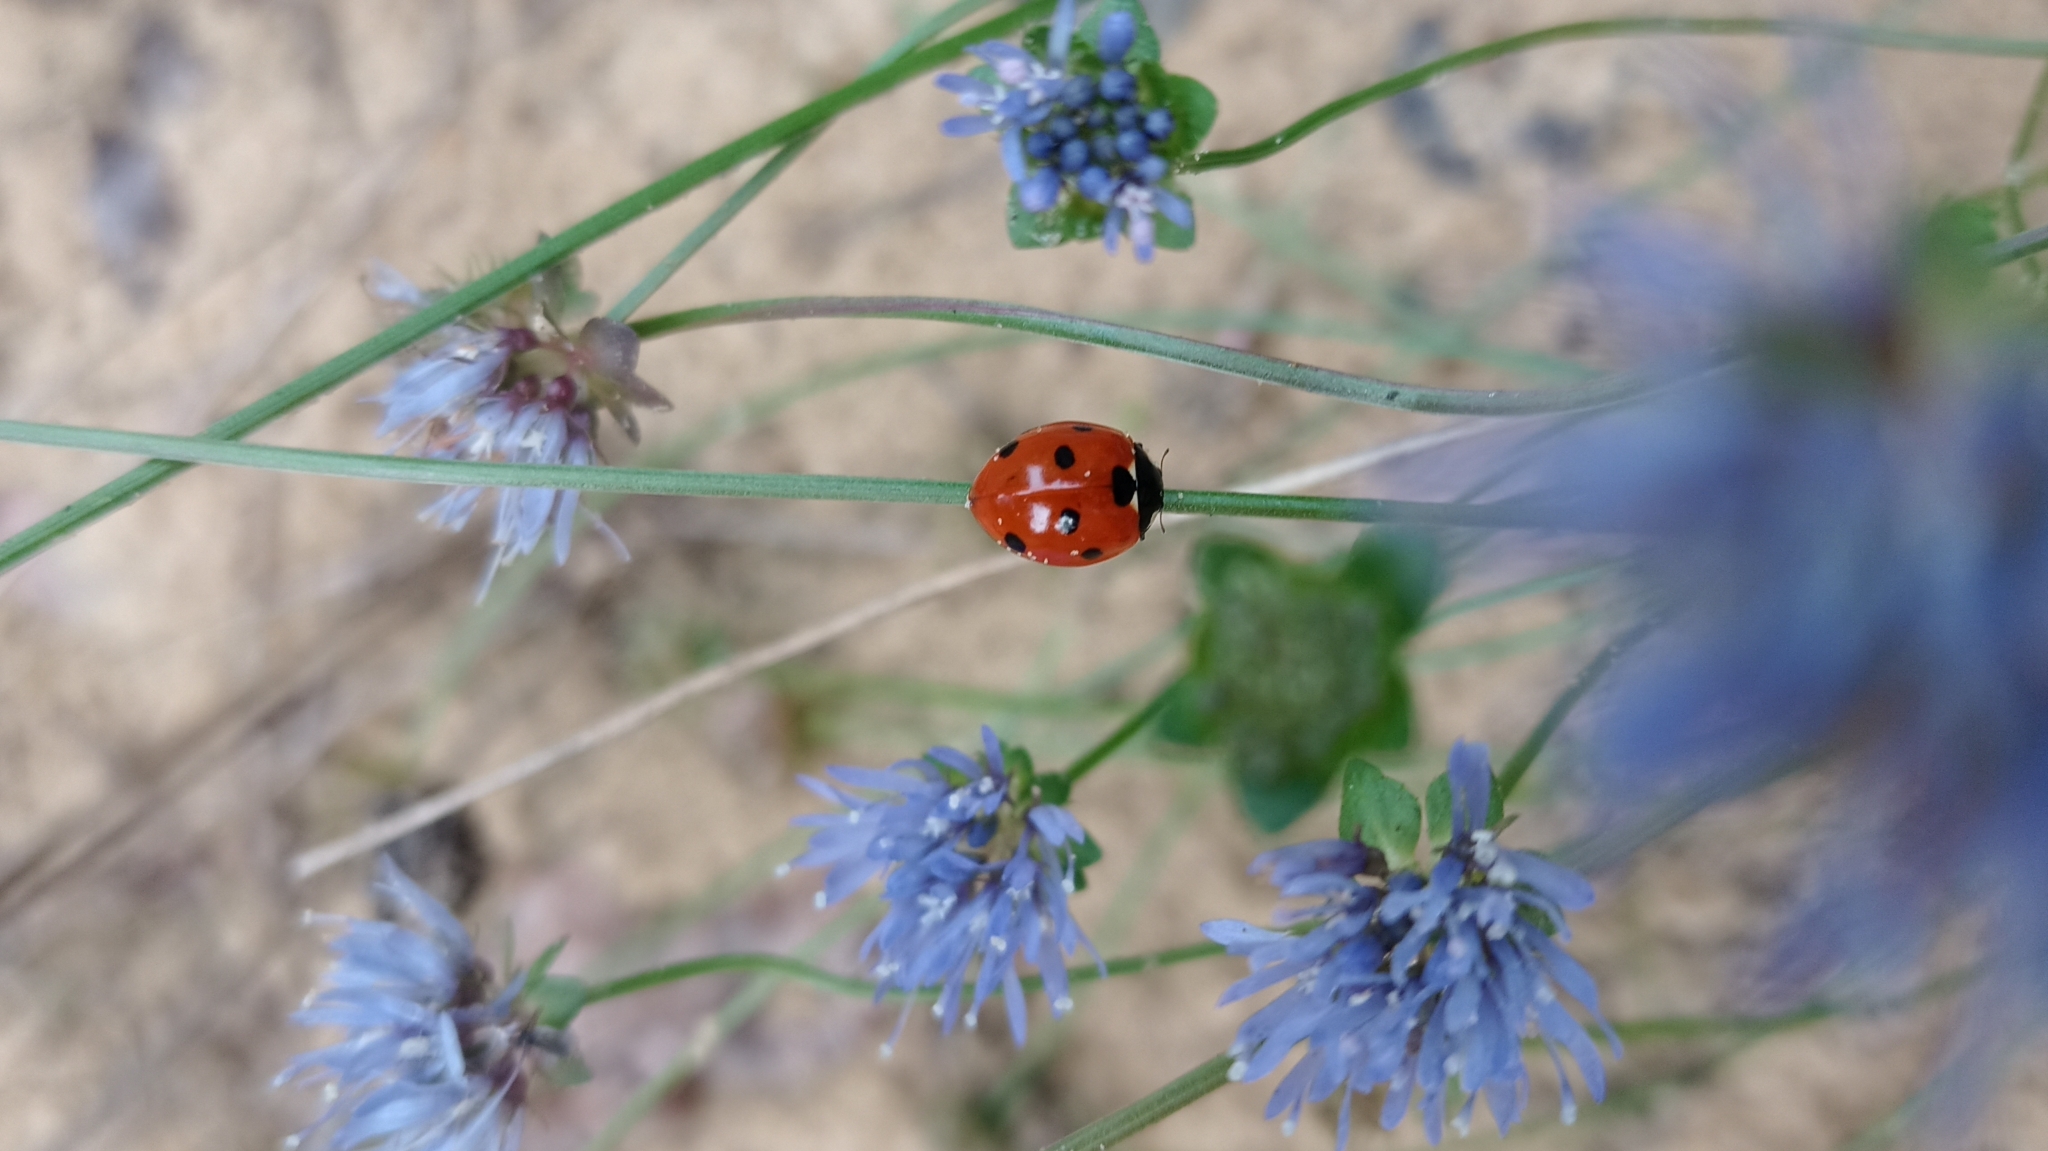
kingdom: Animalia
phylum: Arthropoda
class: Insecta
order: Coleoptera
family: Coccinellidae
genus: Coccinella
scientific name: Coccinella septempunctata
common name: Sevenspotted lady beetle
